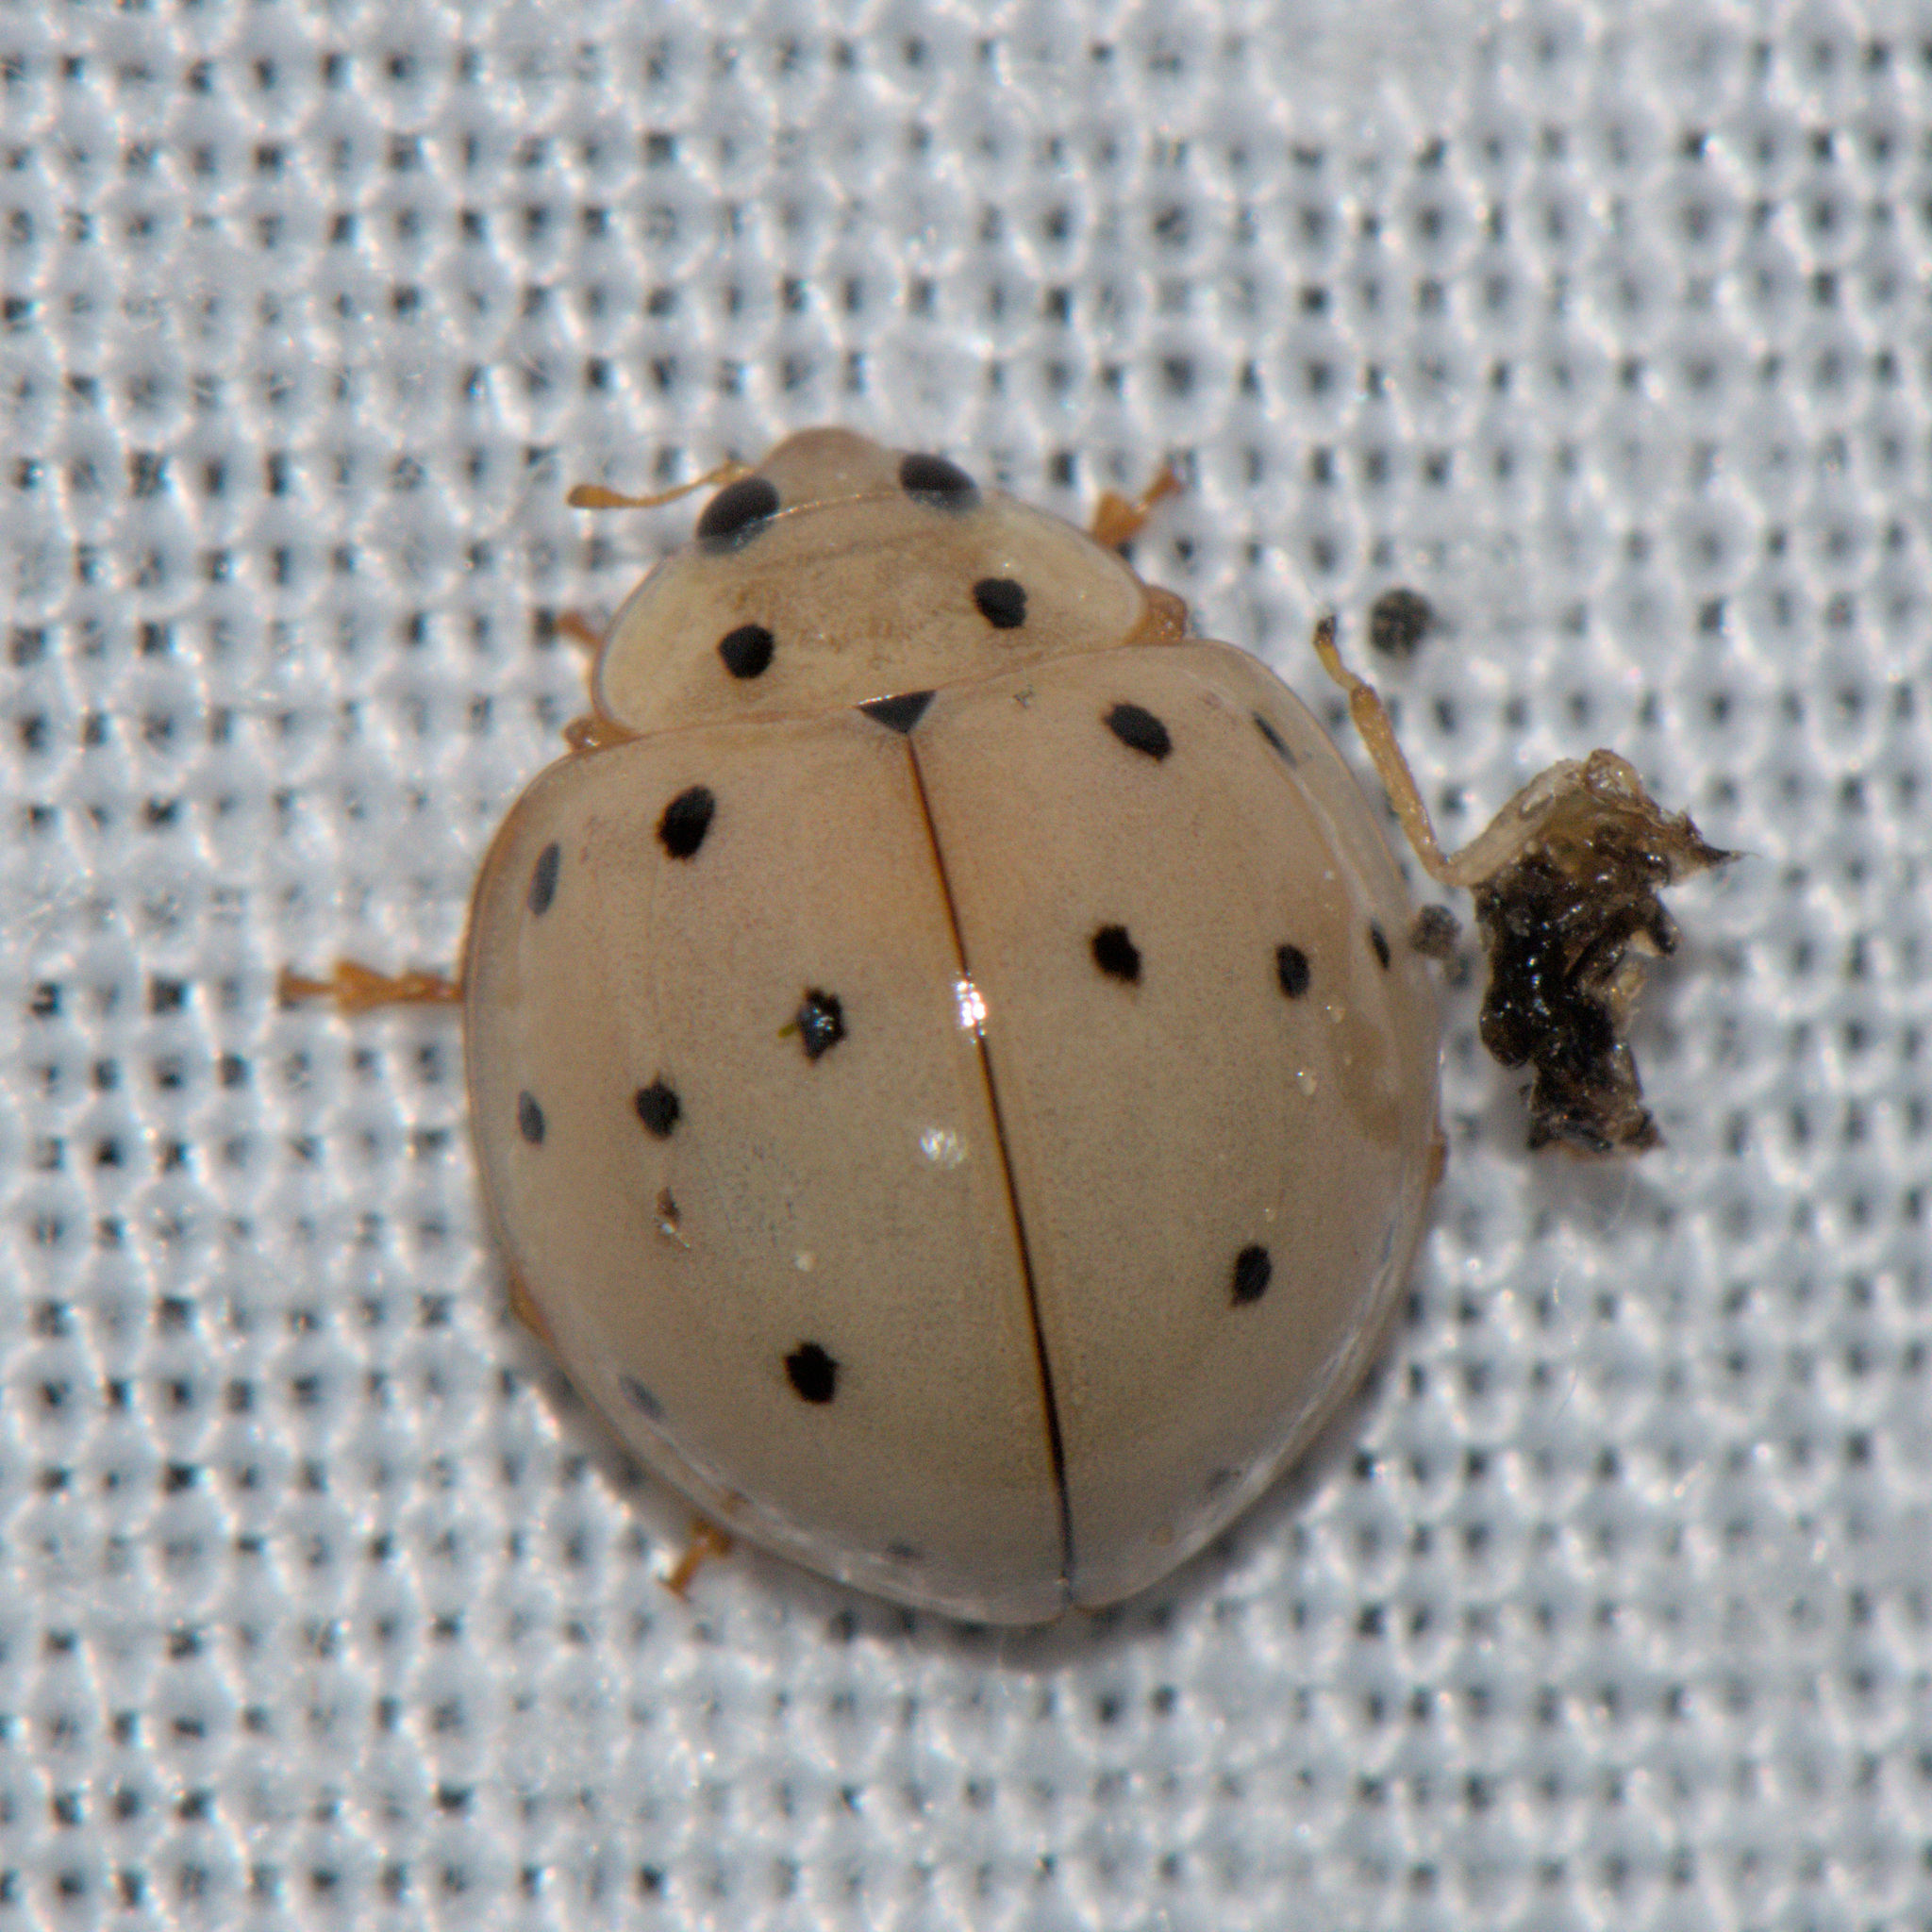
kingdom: Animalia
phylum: Arthropoda
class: Insecta
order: Coleoptera
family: Coccinellidae
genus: Harmonia
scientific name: Harmonia sedecimnotata
